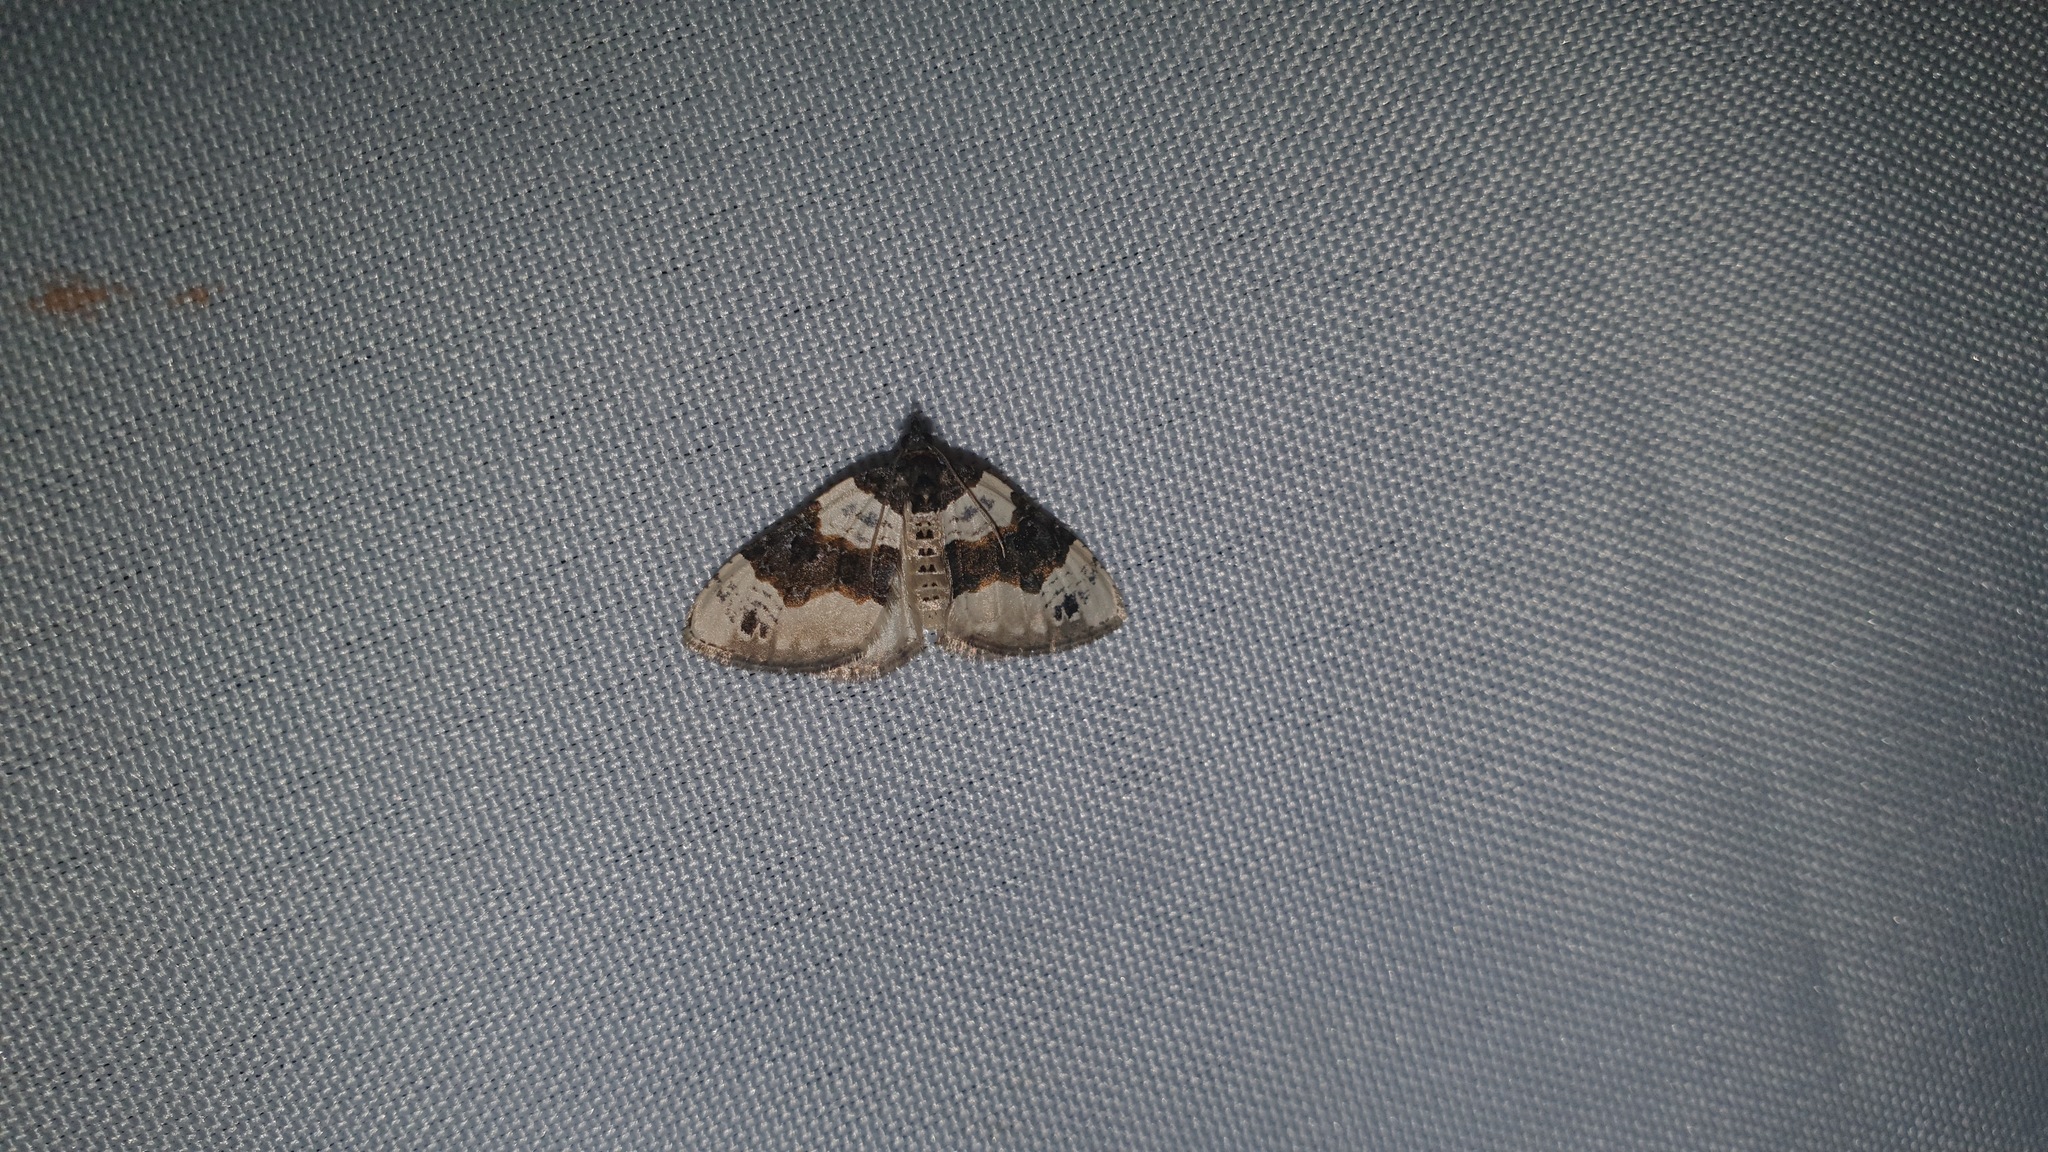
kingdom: Animalia
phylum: Arthropoda
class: Insecta
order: Lepidoptera
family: Geometridae
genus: Cosmorhoe
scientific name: Cosmorhoe ocellata
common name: Purple bar
